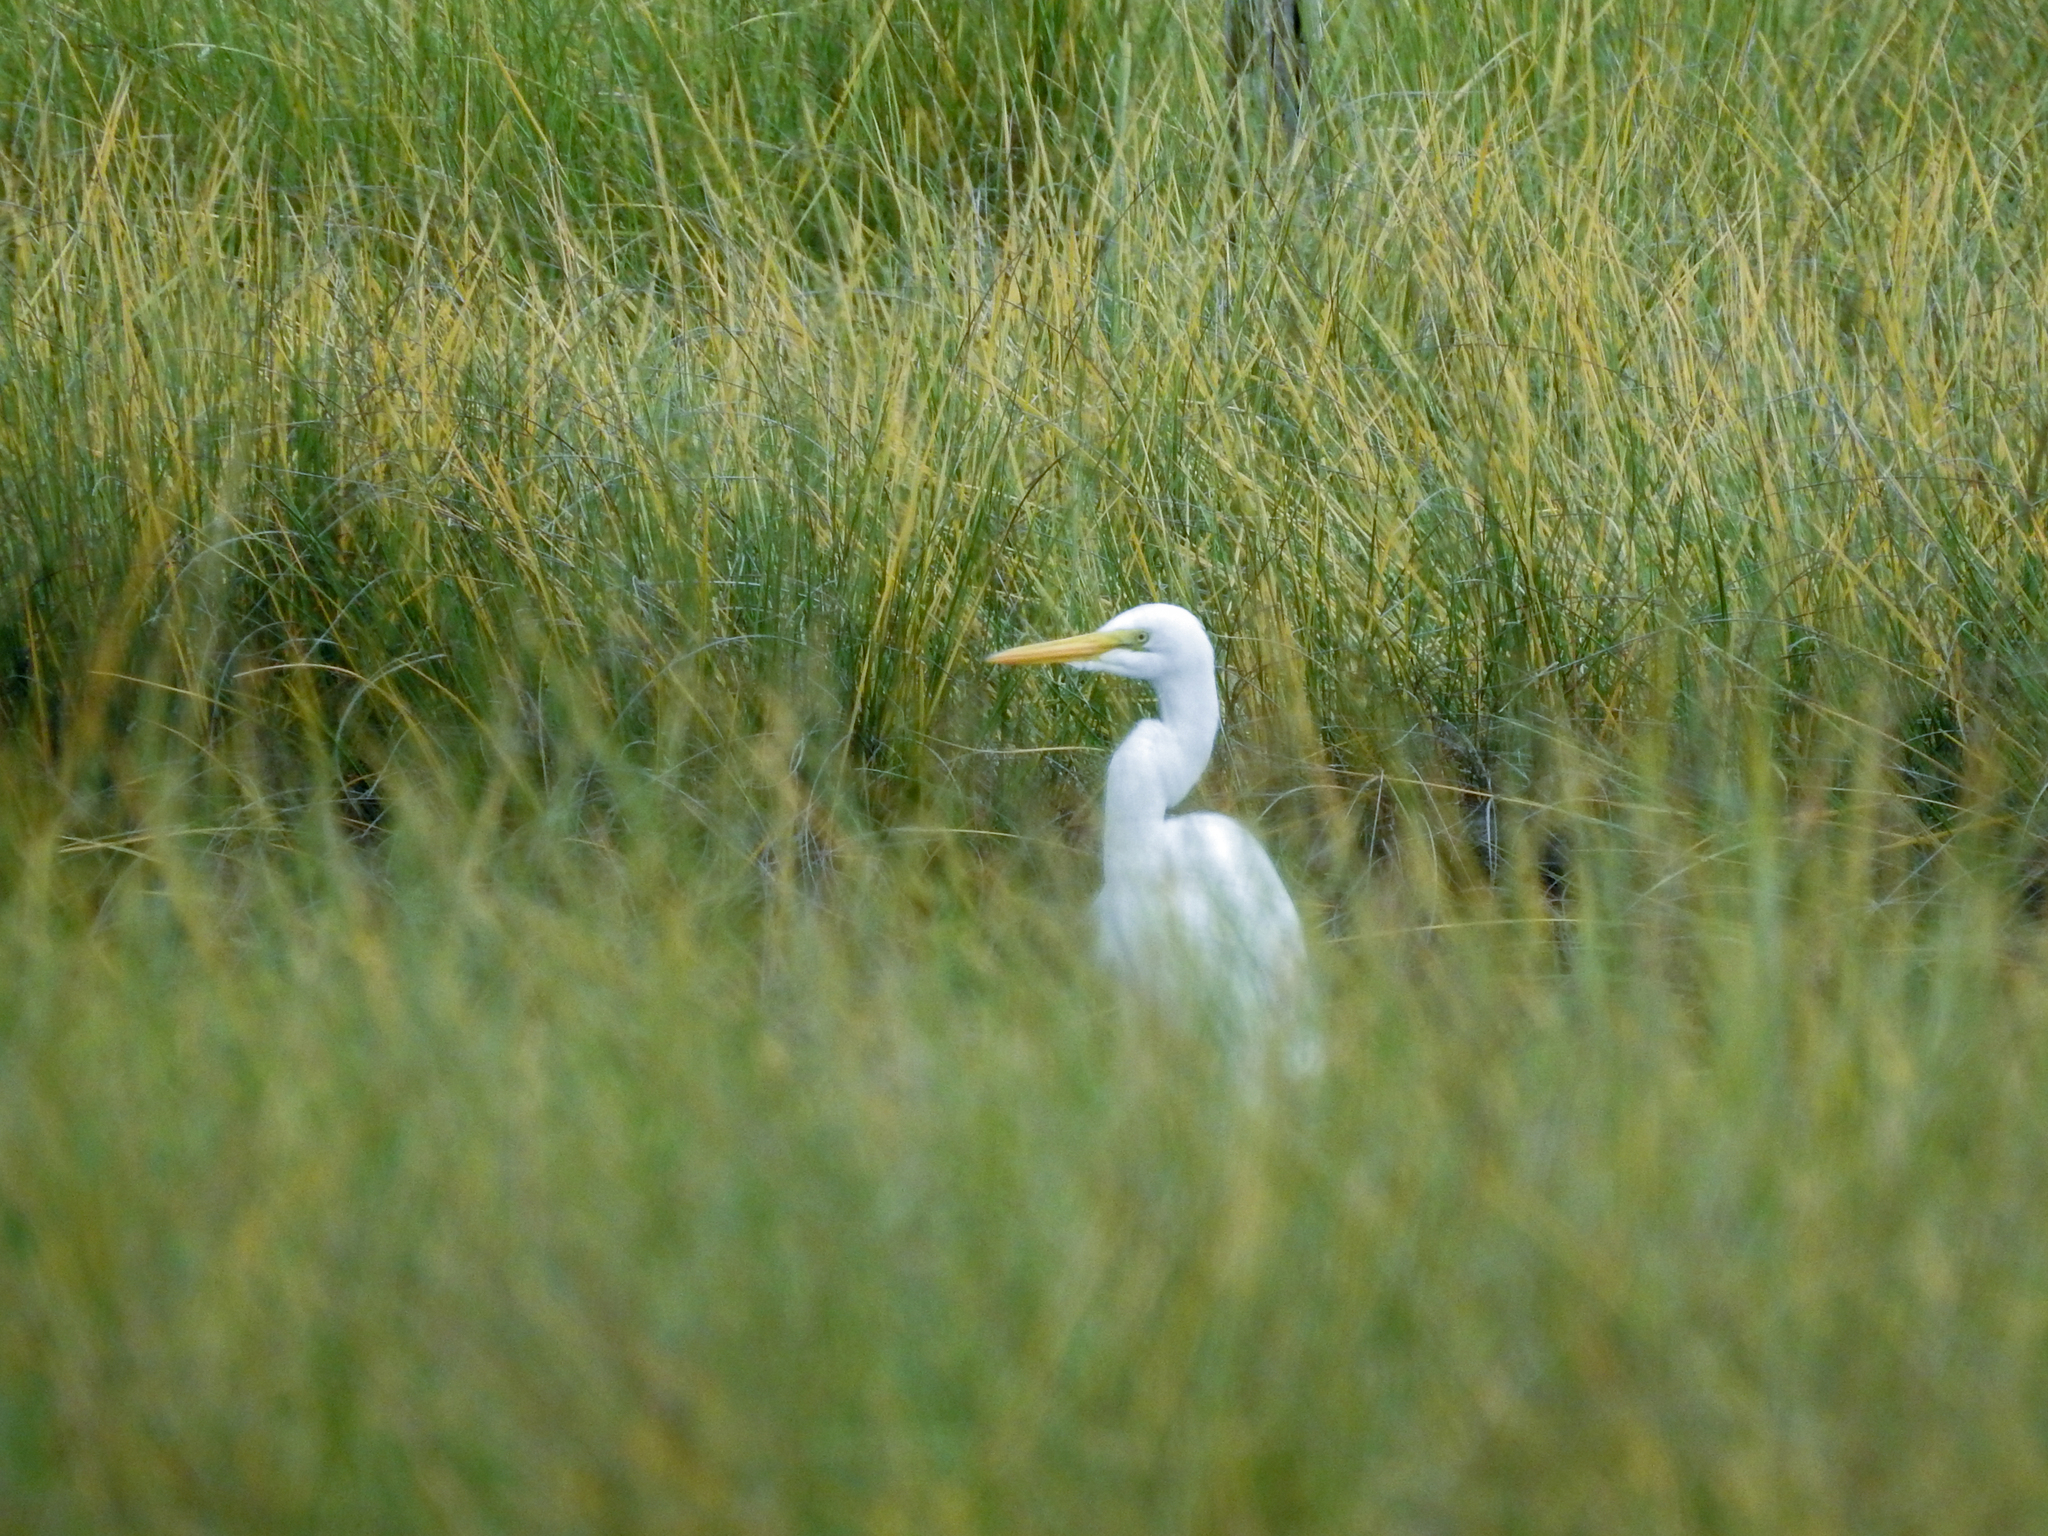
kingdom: Animalia
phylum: Chordata
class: Aves
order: Pelecaniformes
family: Ardeidae
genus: Ardea
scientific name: Ardea alba
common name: Great egret
